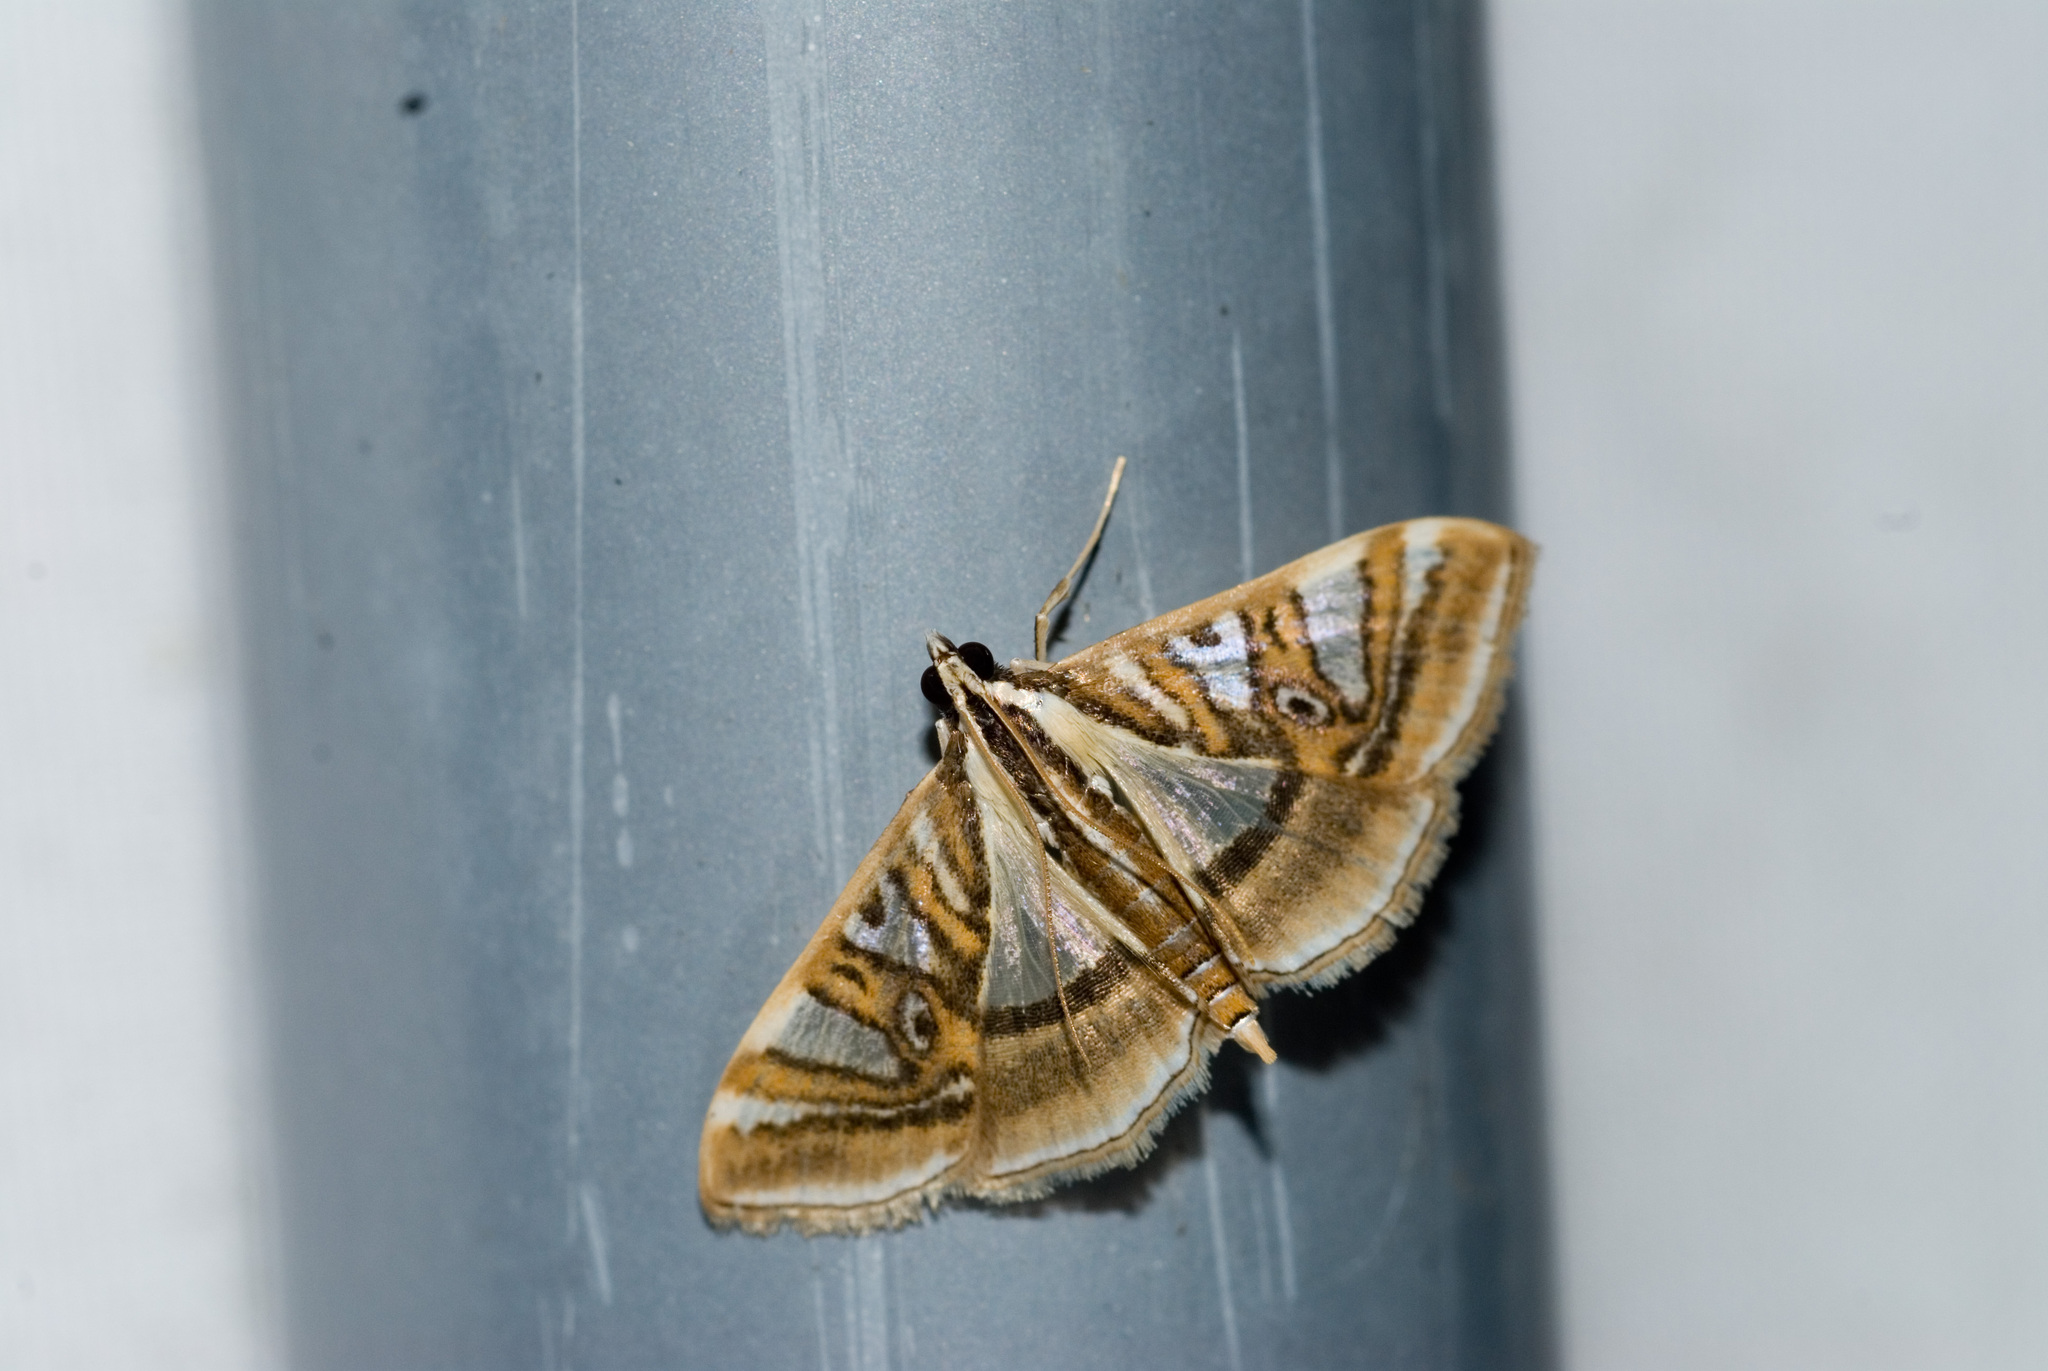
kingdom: Animalia
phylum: Arthropoda
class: Insecta
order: Lepidoptera
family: Crambidae
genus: Glyphodes
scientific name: Glyphodes duplicalis
